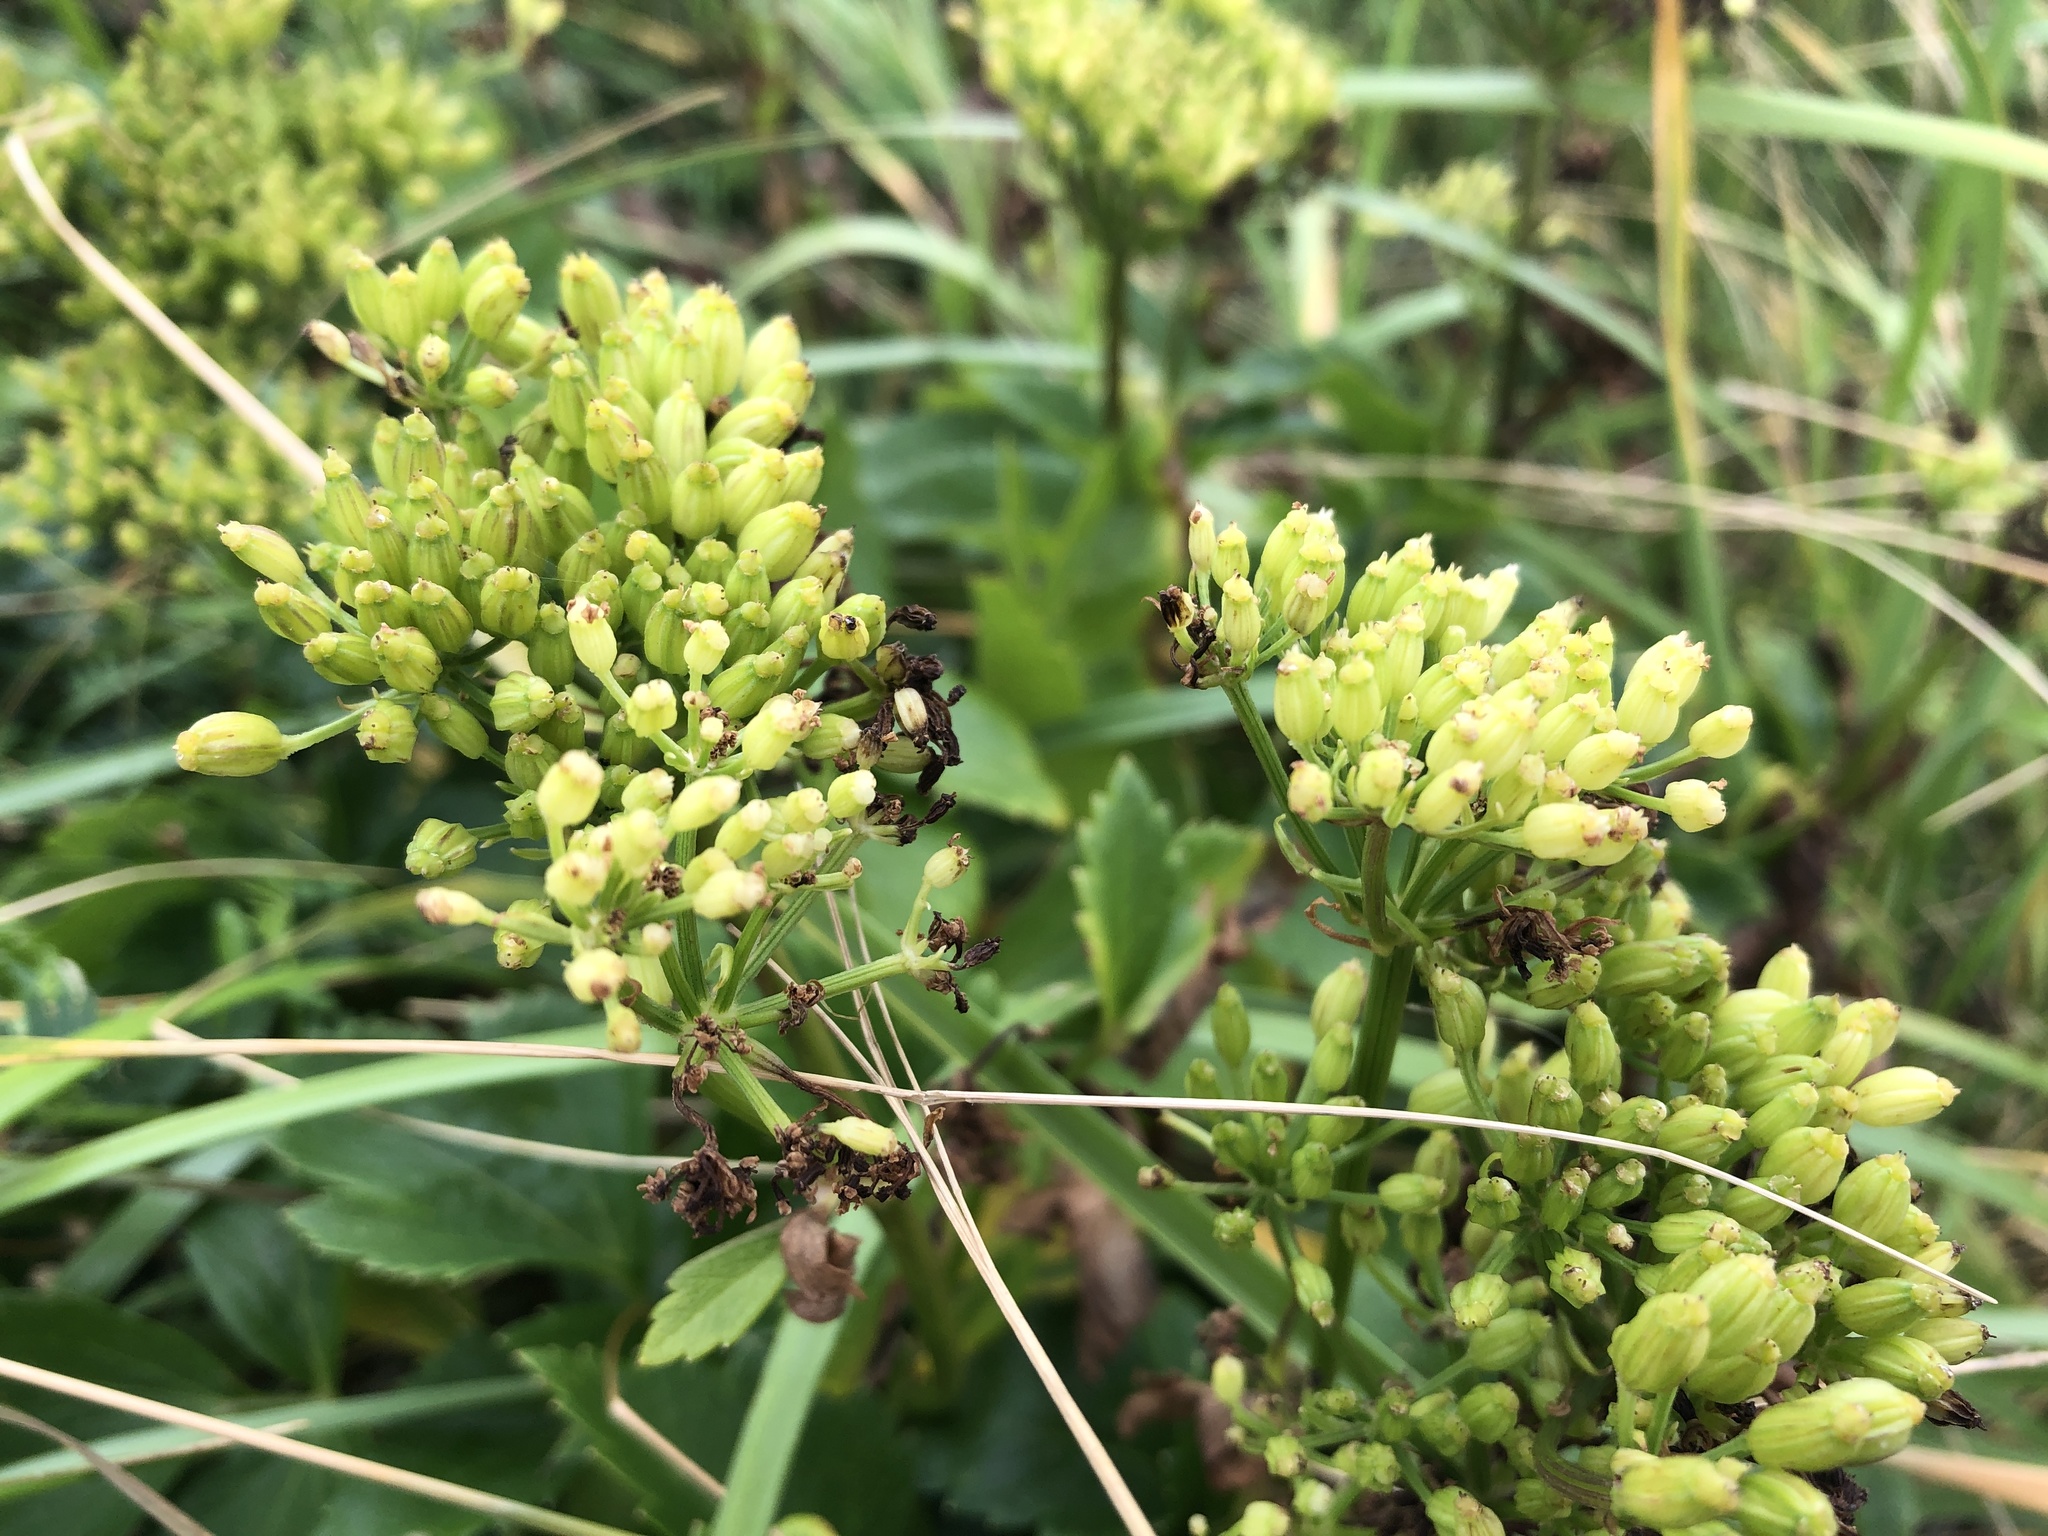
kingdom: Plantae
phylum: Tracheophyta
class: Magnoliopsida
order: Apiales
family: Apiaceae
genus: Ligusticum
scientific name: Ligusticum scothicum
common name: Beach lovage
